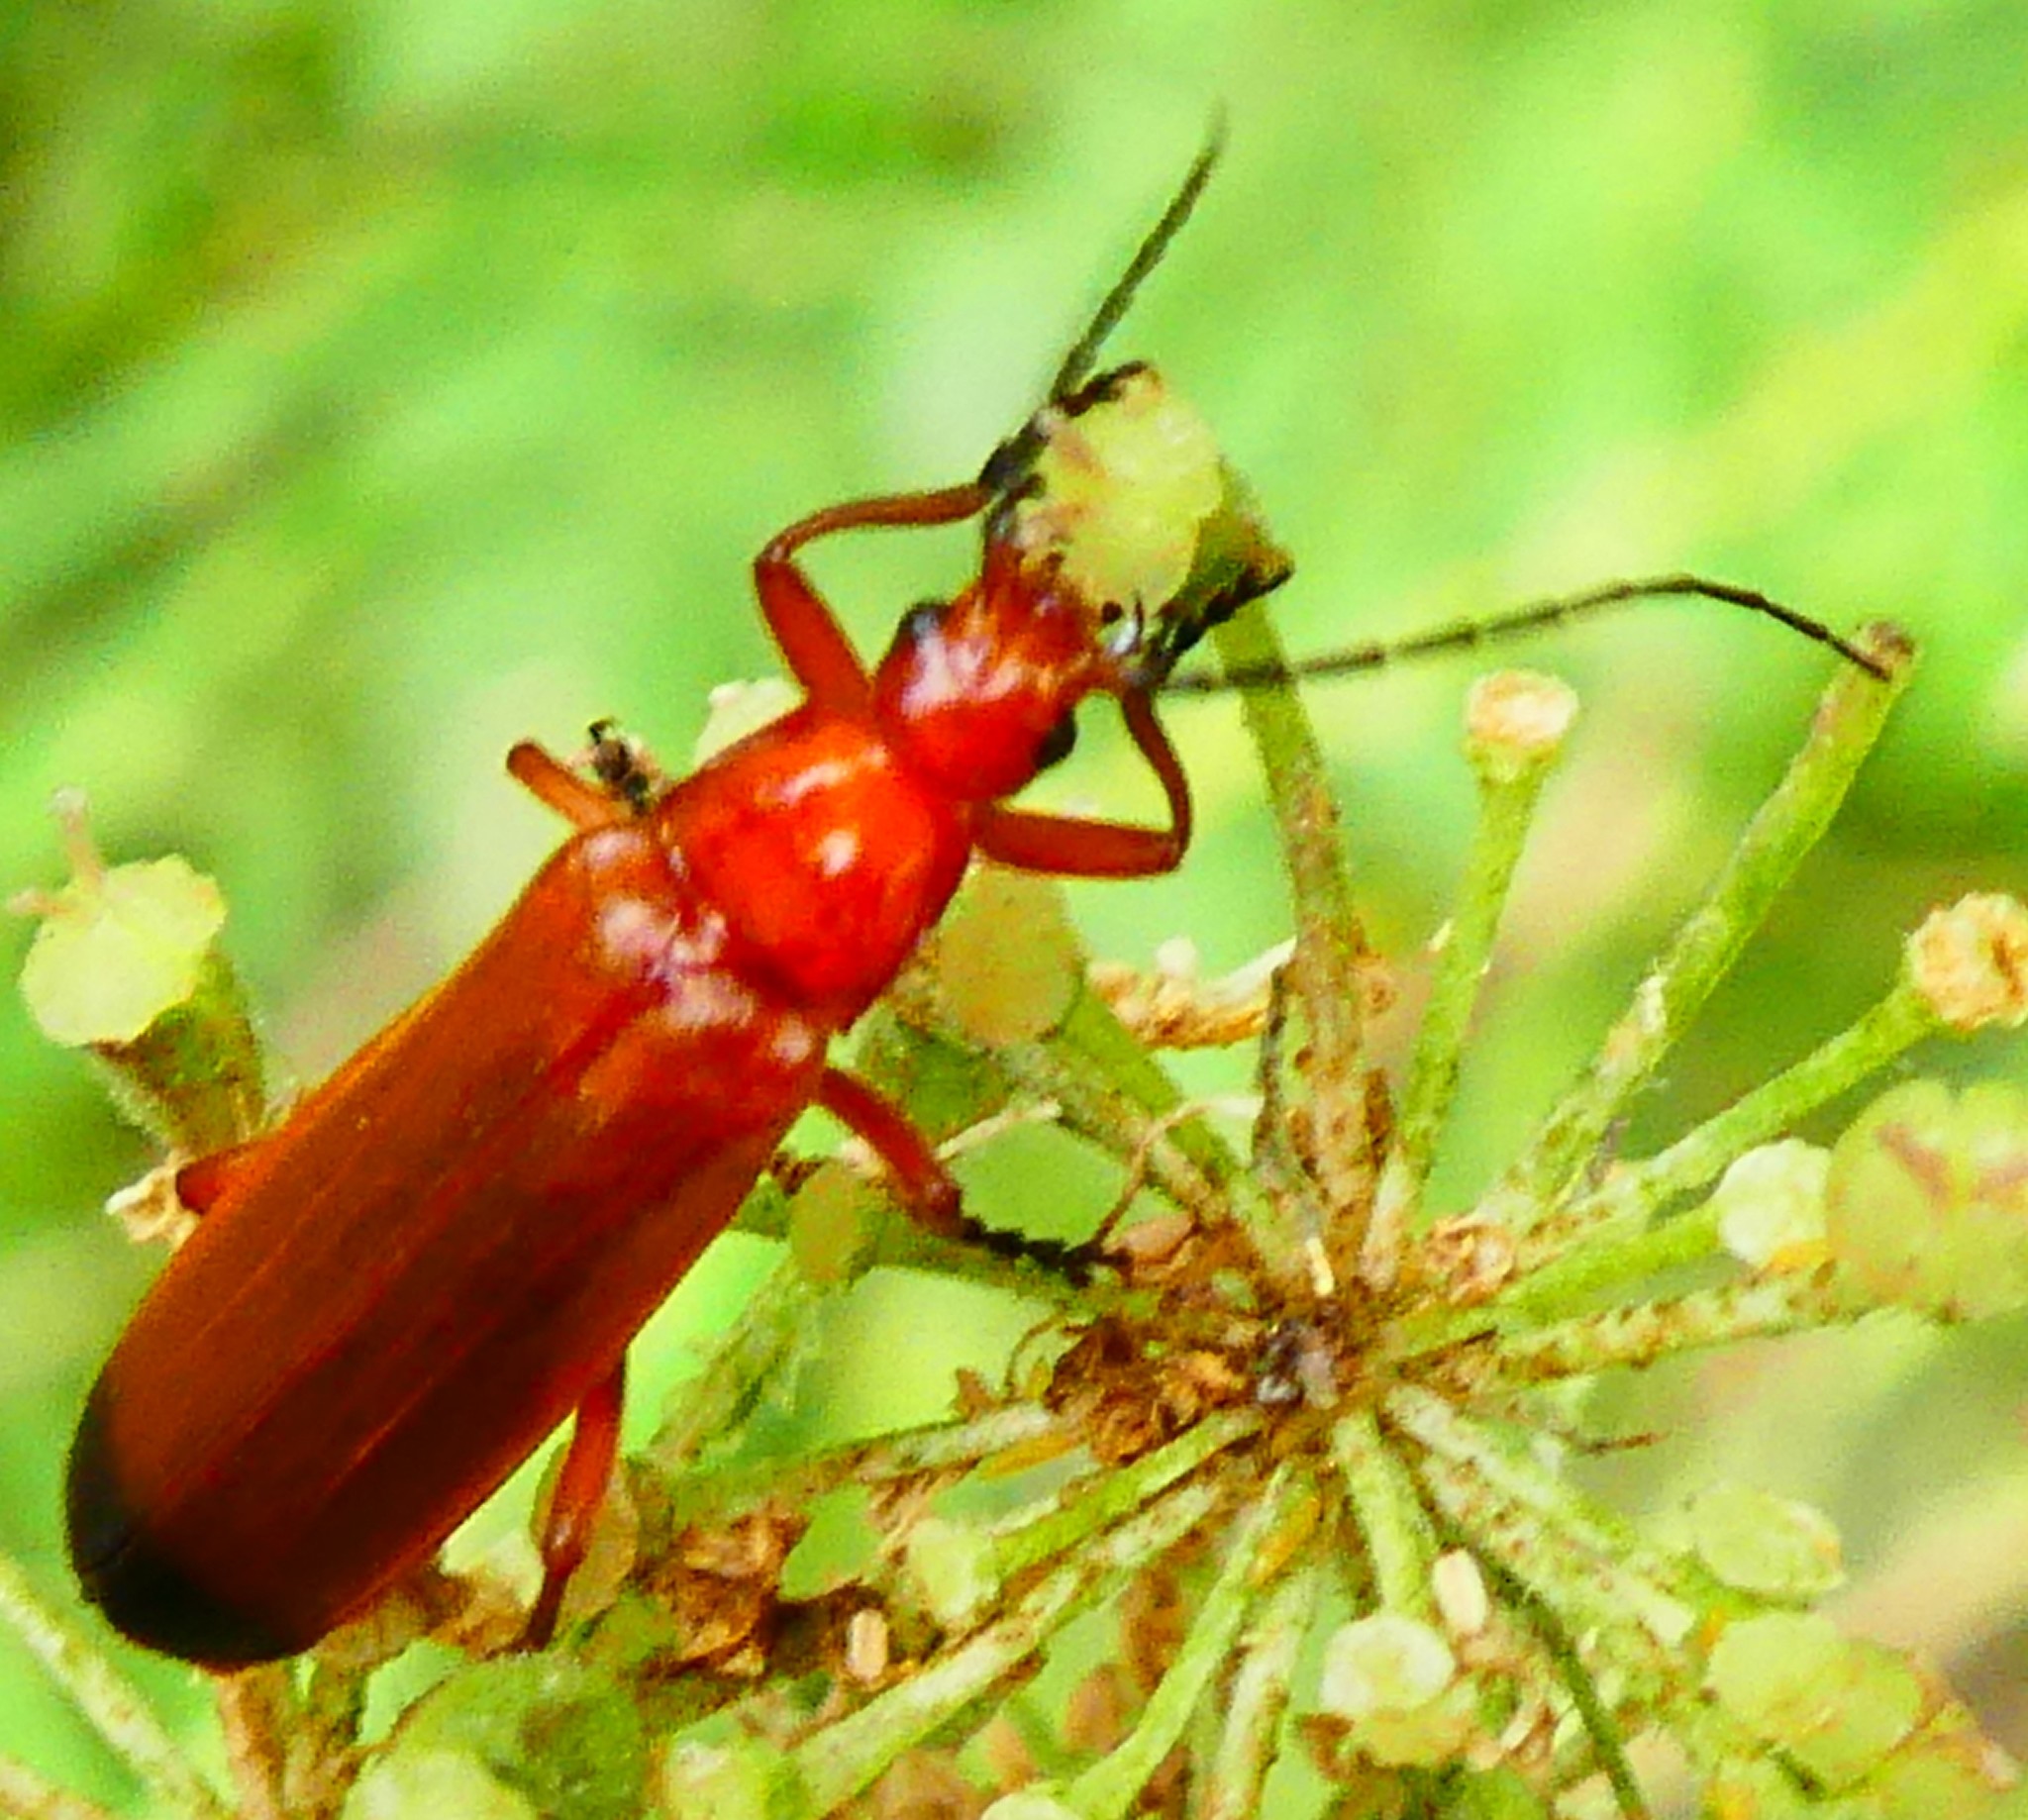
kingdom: Animalia
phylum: Arthropoda
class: Insecta
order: Coleoptera
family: Cantharidae
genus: Rhagonycha
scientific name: Rhagonycha fulva
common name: Common red soldier beetle
